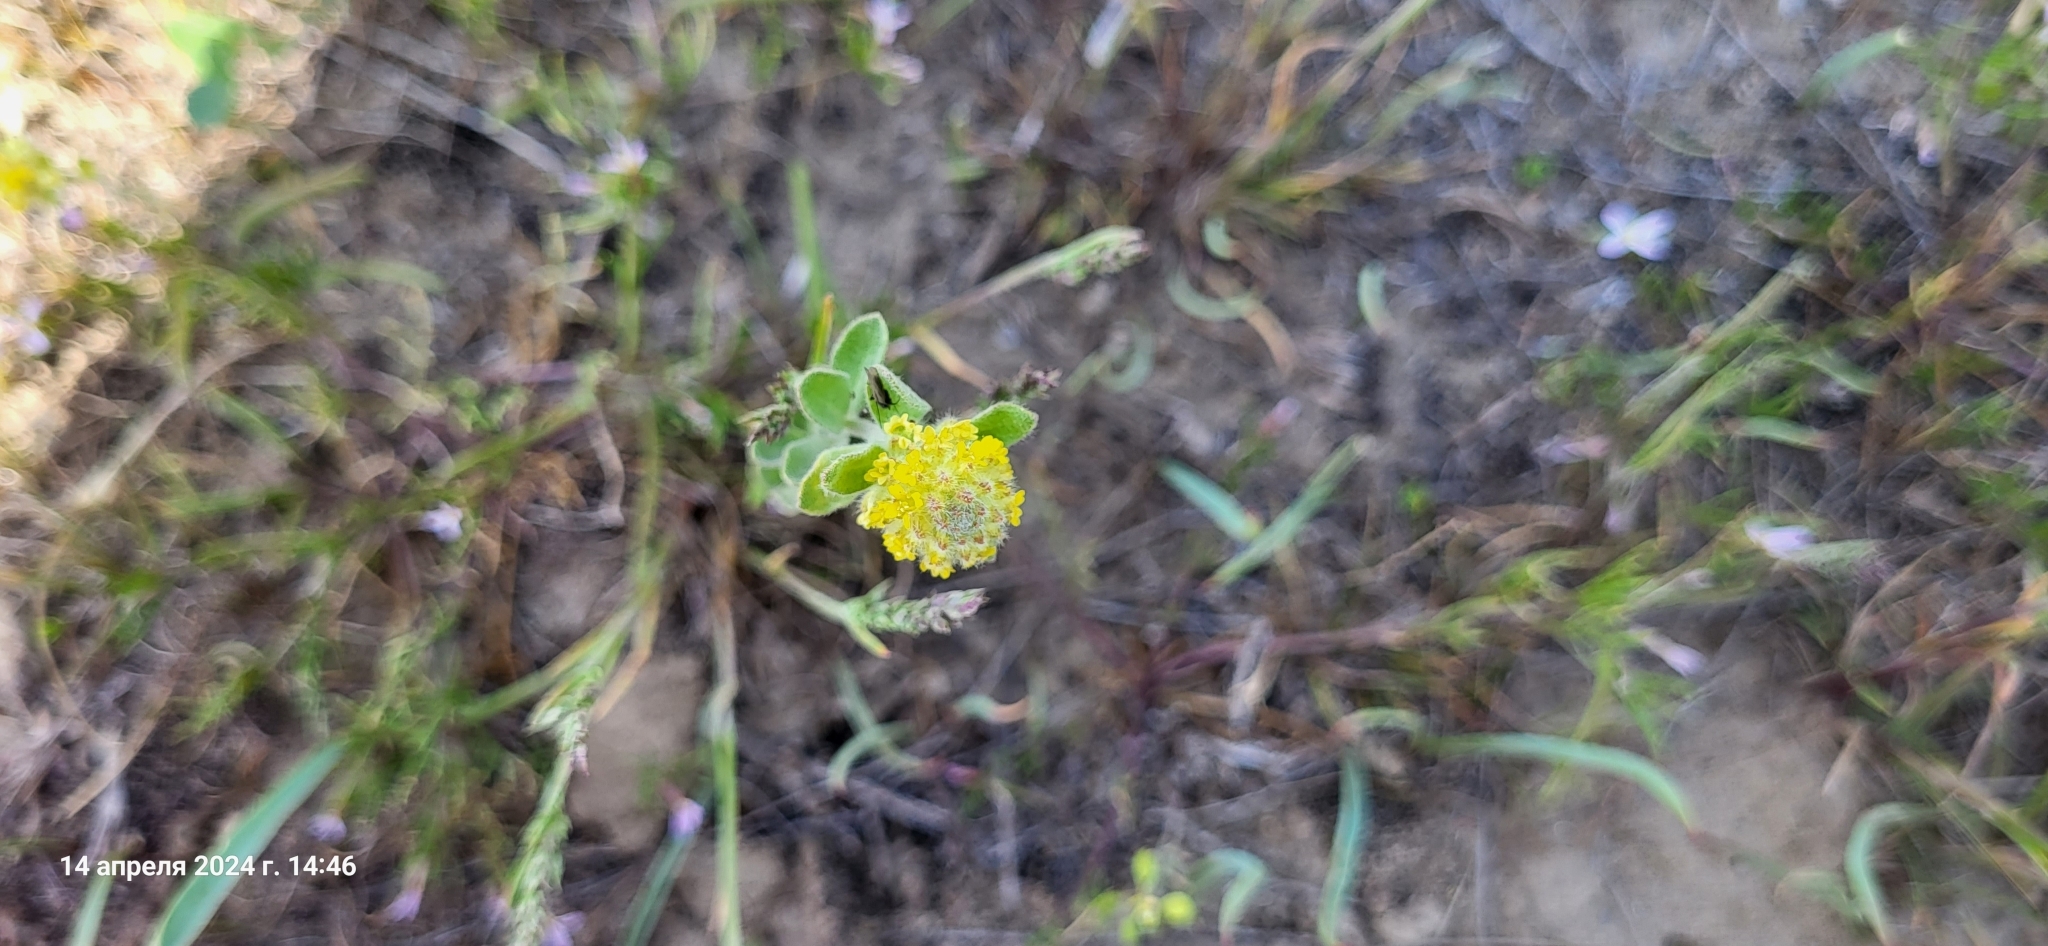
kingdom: Plantae
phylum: Tracheophyta
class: Magnoliopsida
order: Brassicales
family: Brassicaceae
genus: Alyssum
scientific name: Alyssum dasycarpum
